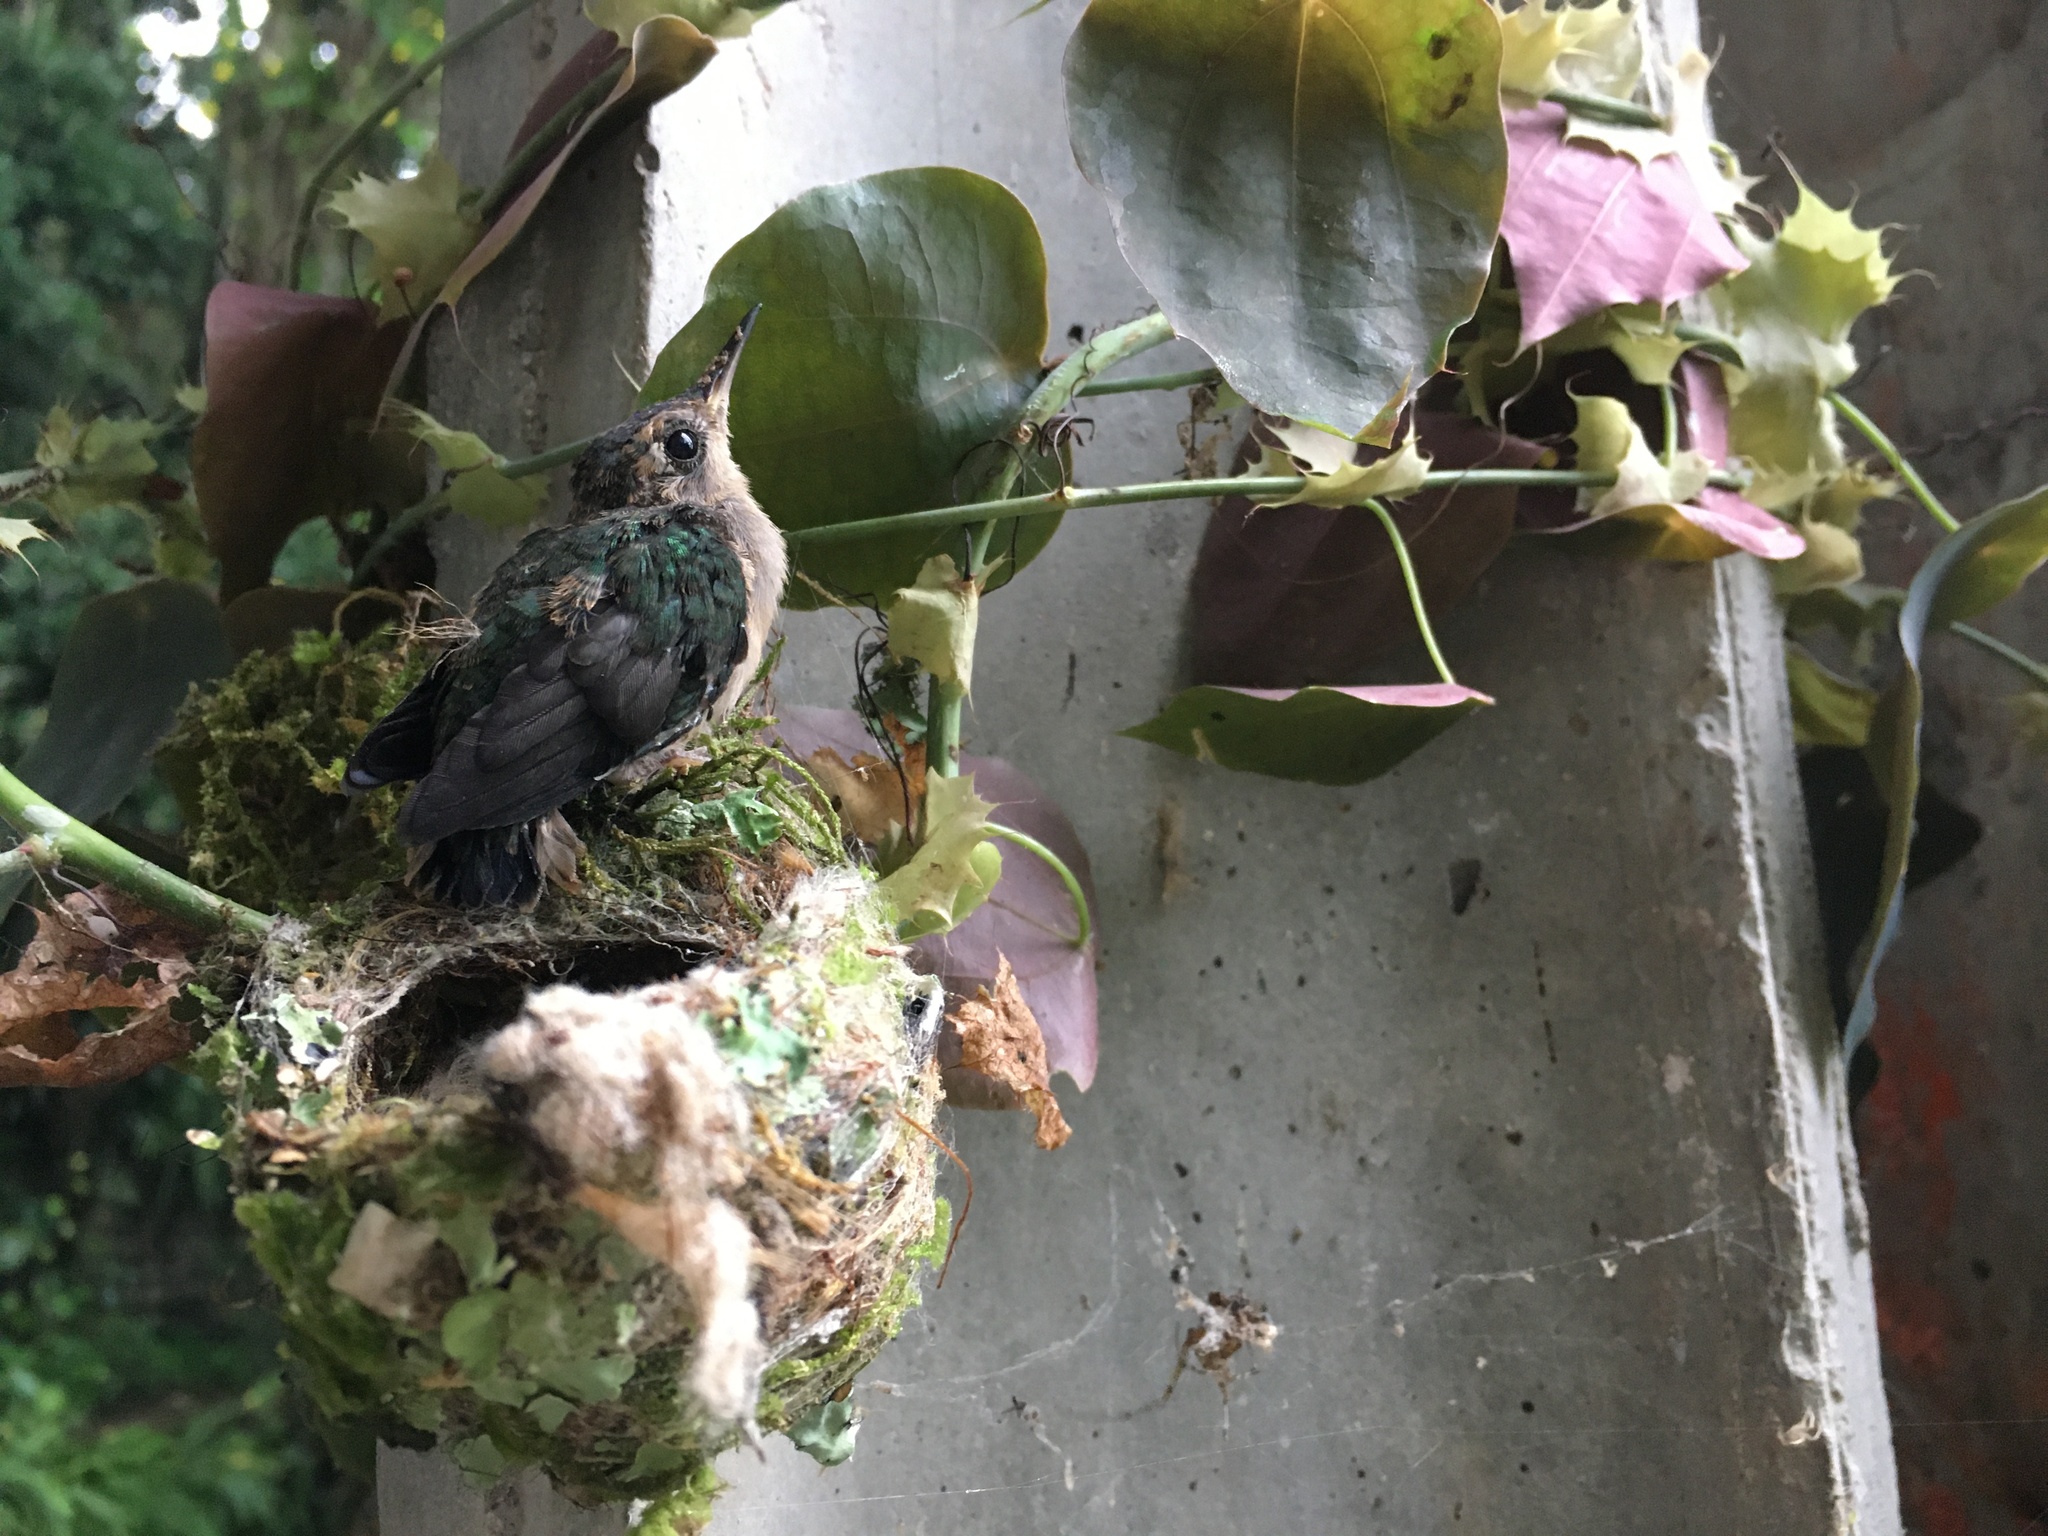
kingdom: Animalia
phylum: Chordata
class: Aves
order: Apodiformes
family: Trochilidae
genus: Pampa
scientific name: Pampa curvipennis
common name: Curve-winged sabrewing
